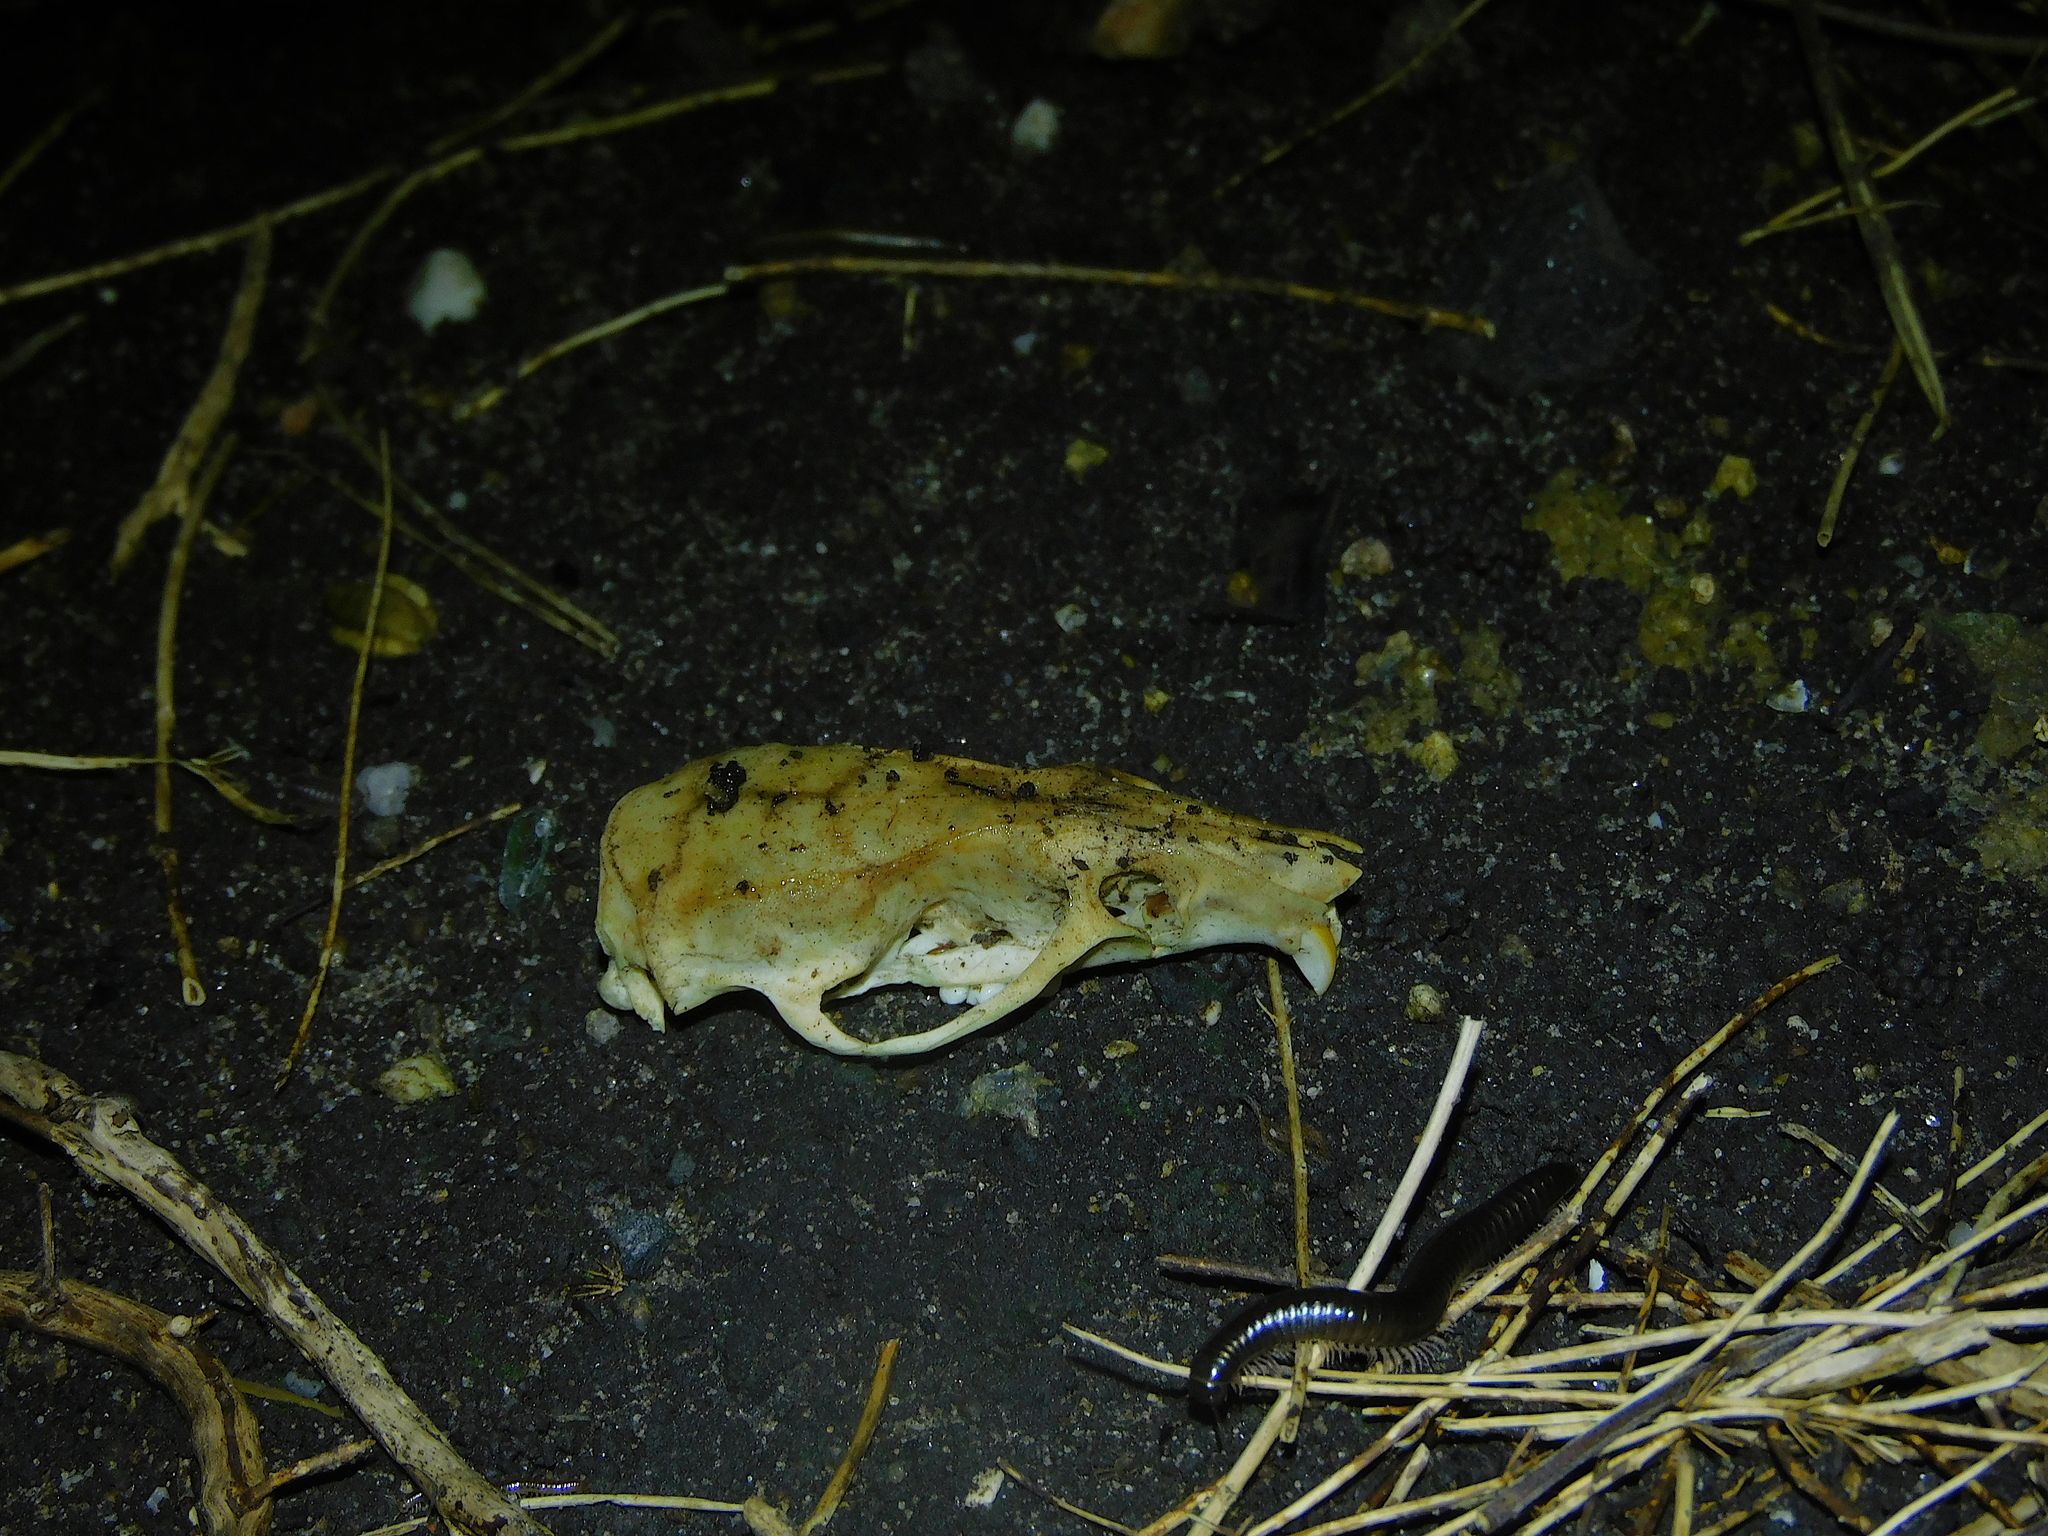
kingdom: Animalia
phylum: Chordata
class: Mammalia
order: Rodentia
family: Muridae
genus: Rattus
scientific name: Rattus rattus
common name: Black rat
